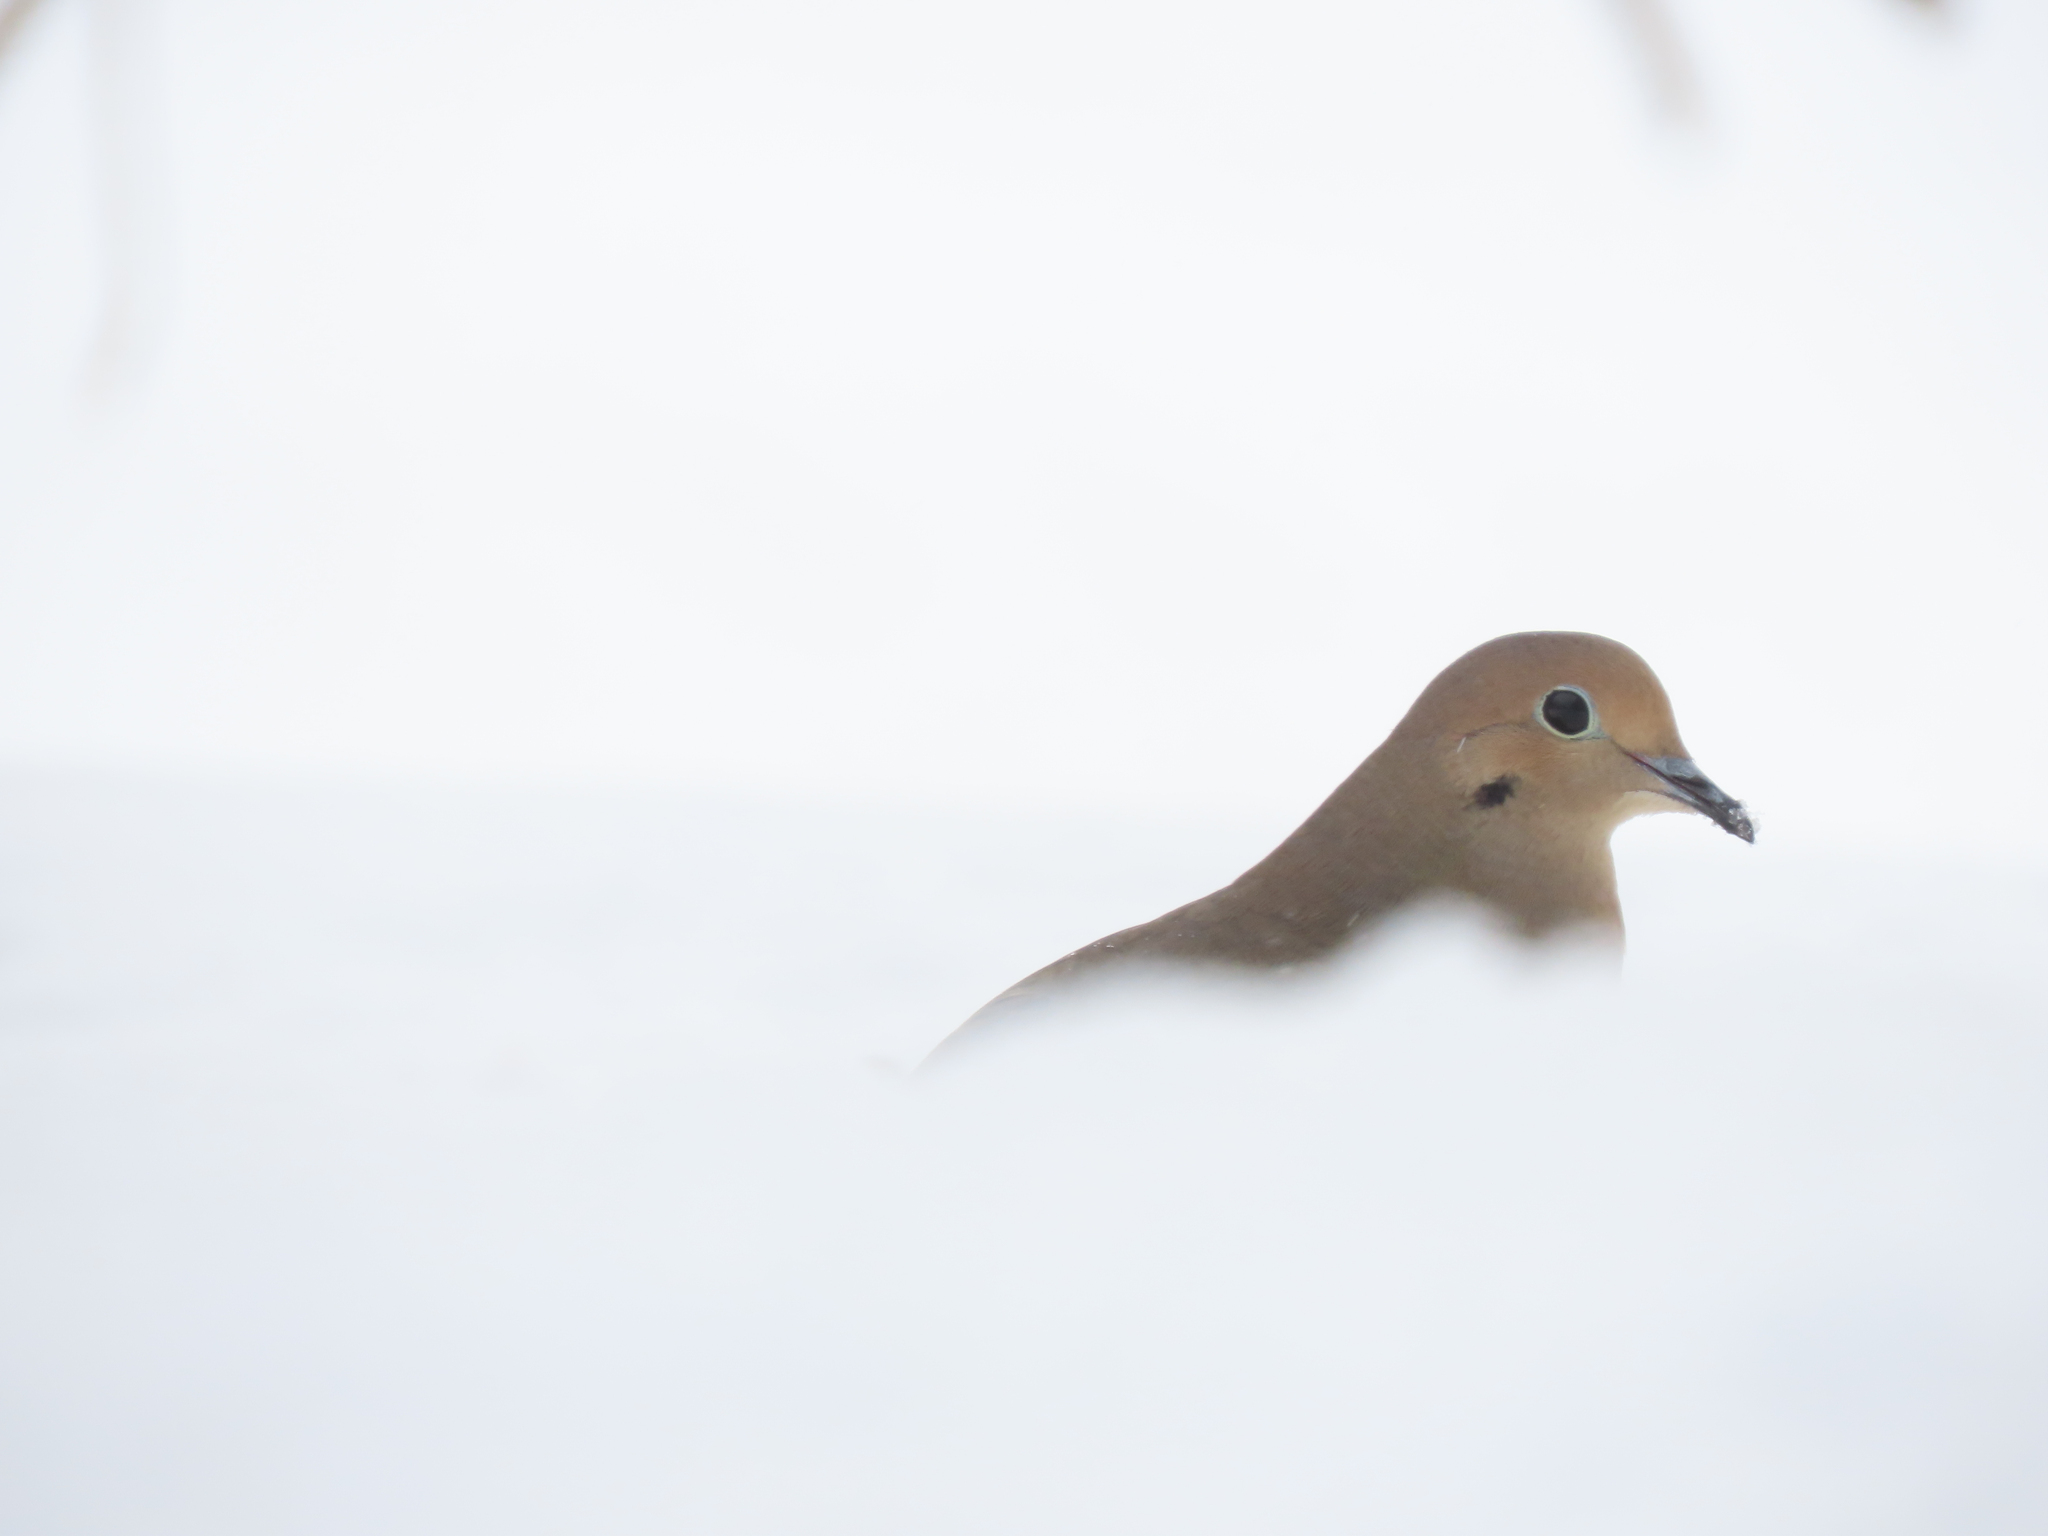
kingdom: Animalia
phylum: Chordata
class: Aves
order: Columbiformes
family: Columbidae
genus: Zenaida
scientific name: Zenaida macroura
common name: Mourning dove
